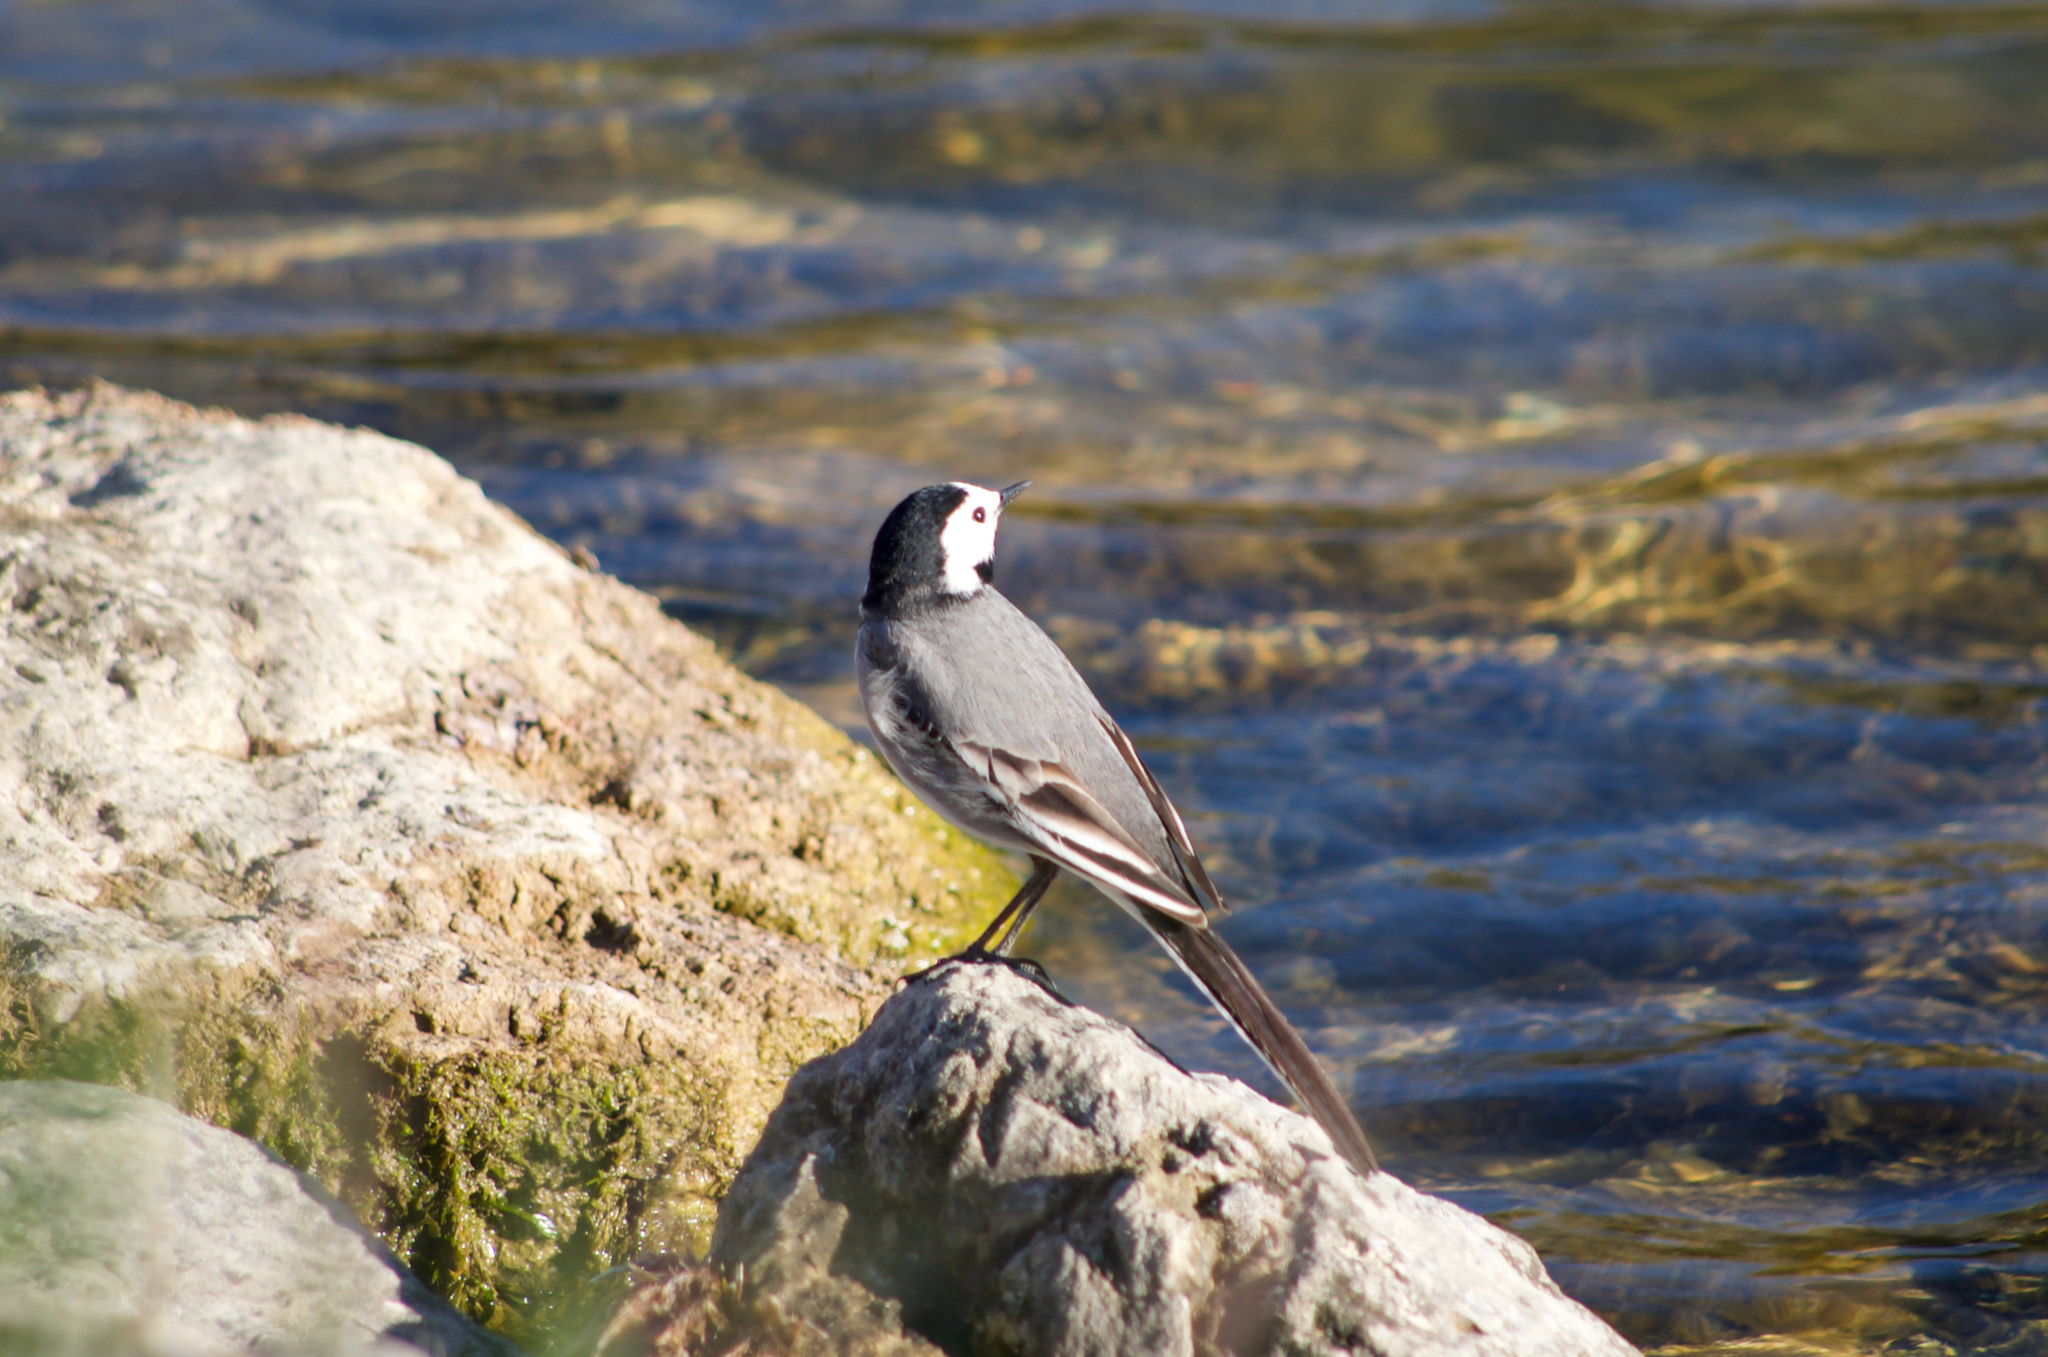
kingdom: Animalia
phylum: Chordata
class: Aves
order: Passeriformes
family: Motacillidae
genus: Motacilla
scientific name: Motacilla alba
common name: White wagtail
